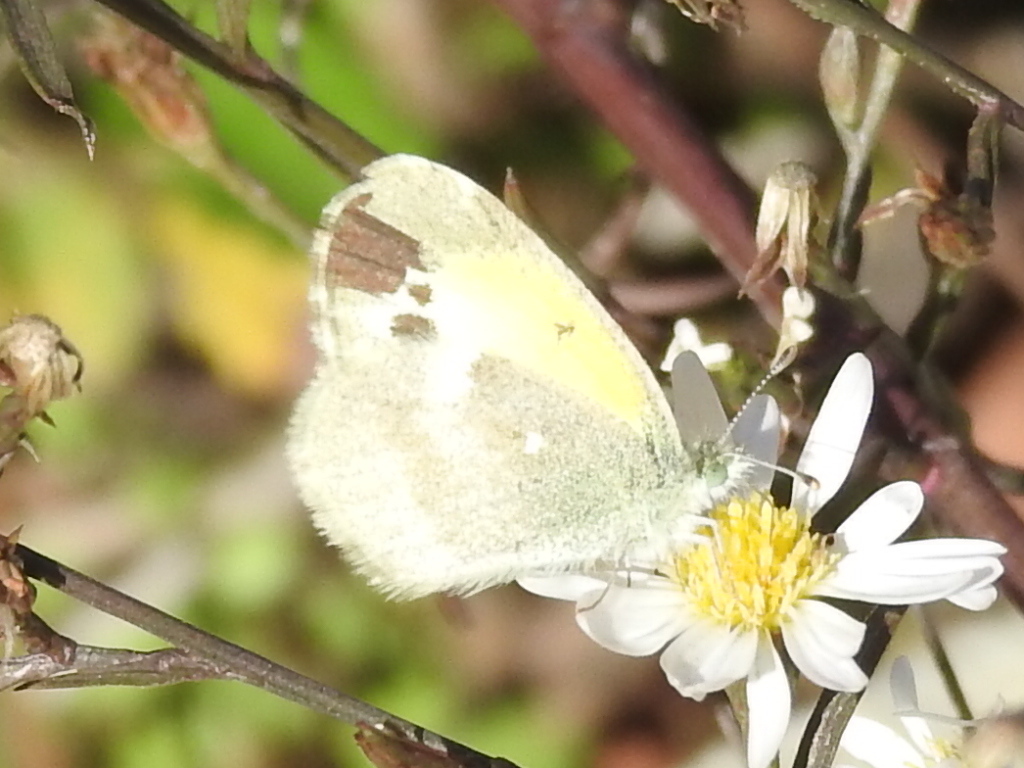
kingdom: Animalia
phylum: Arthropoda
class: Insecta
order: Lepidoptera
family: Pieridae
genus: Nathalis
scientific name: Nathalis iole
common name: Dainty sulphur
